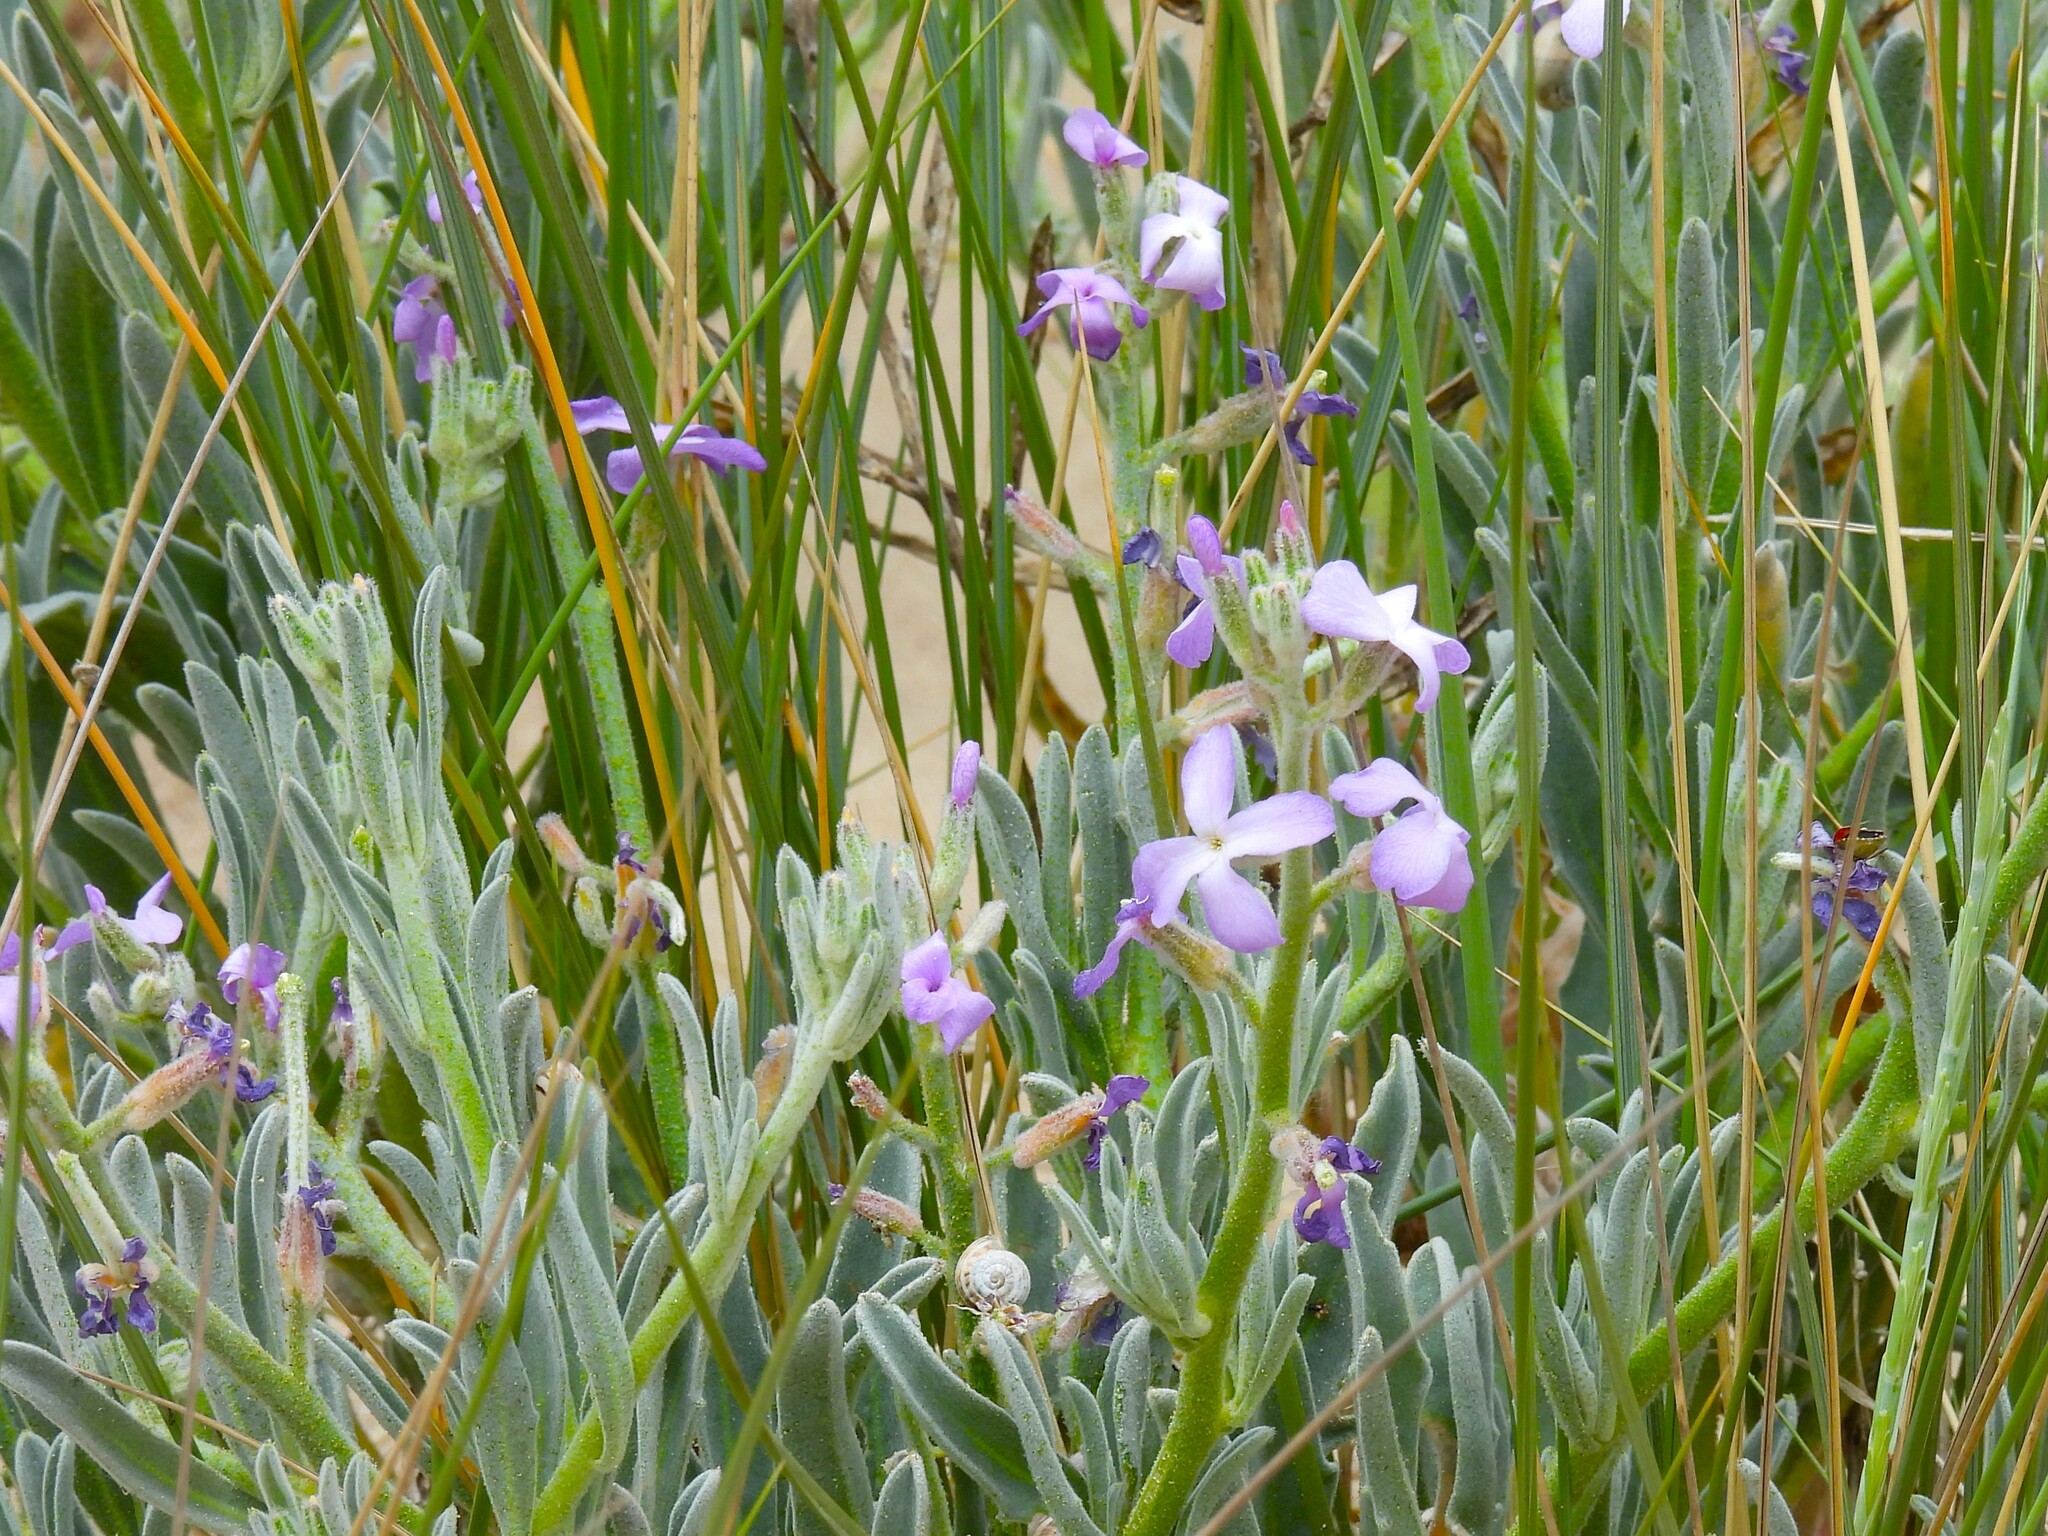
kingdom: Plantae
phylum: Tracheophyta
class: Magnoliopsida
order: Brassicales
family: Brassicaceae
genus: Matthiola
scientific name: Matthiola sinuata
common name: Sea stock
